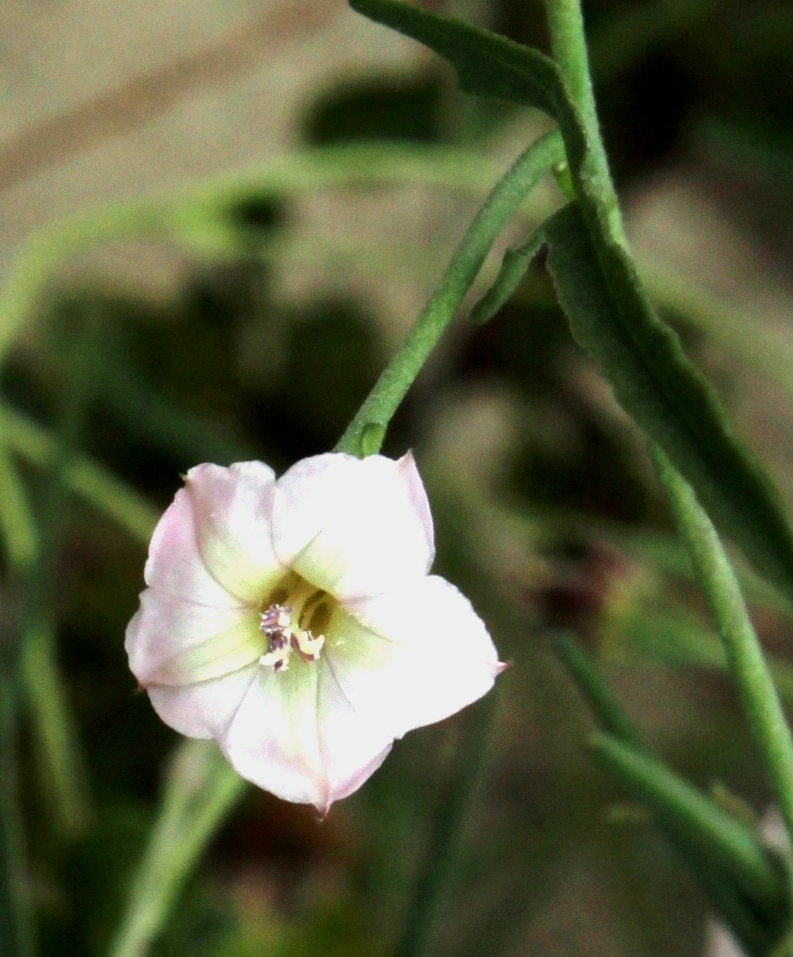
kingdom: Plantae
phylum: Tracheophyta
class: Magnoliopsida
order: Solanales
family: Convolvulaceae
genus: Convolvulus
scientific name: Convolvulus sagittatus
